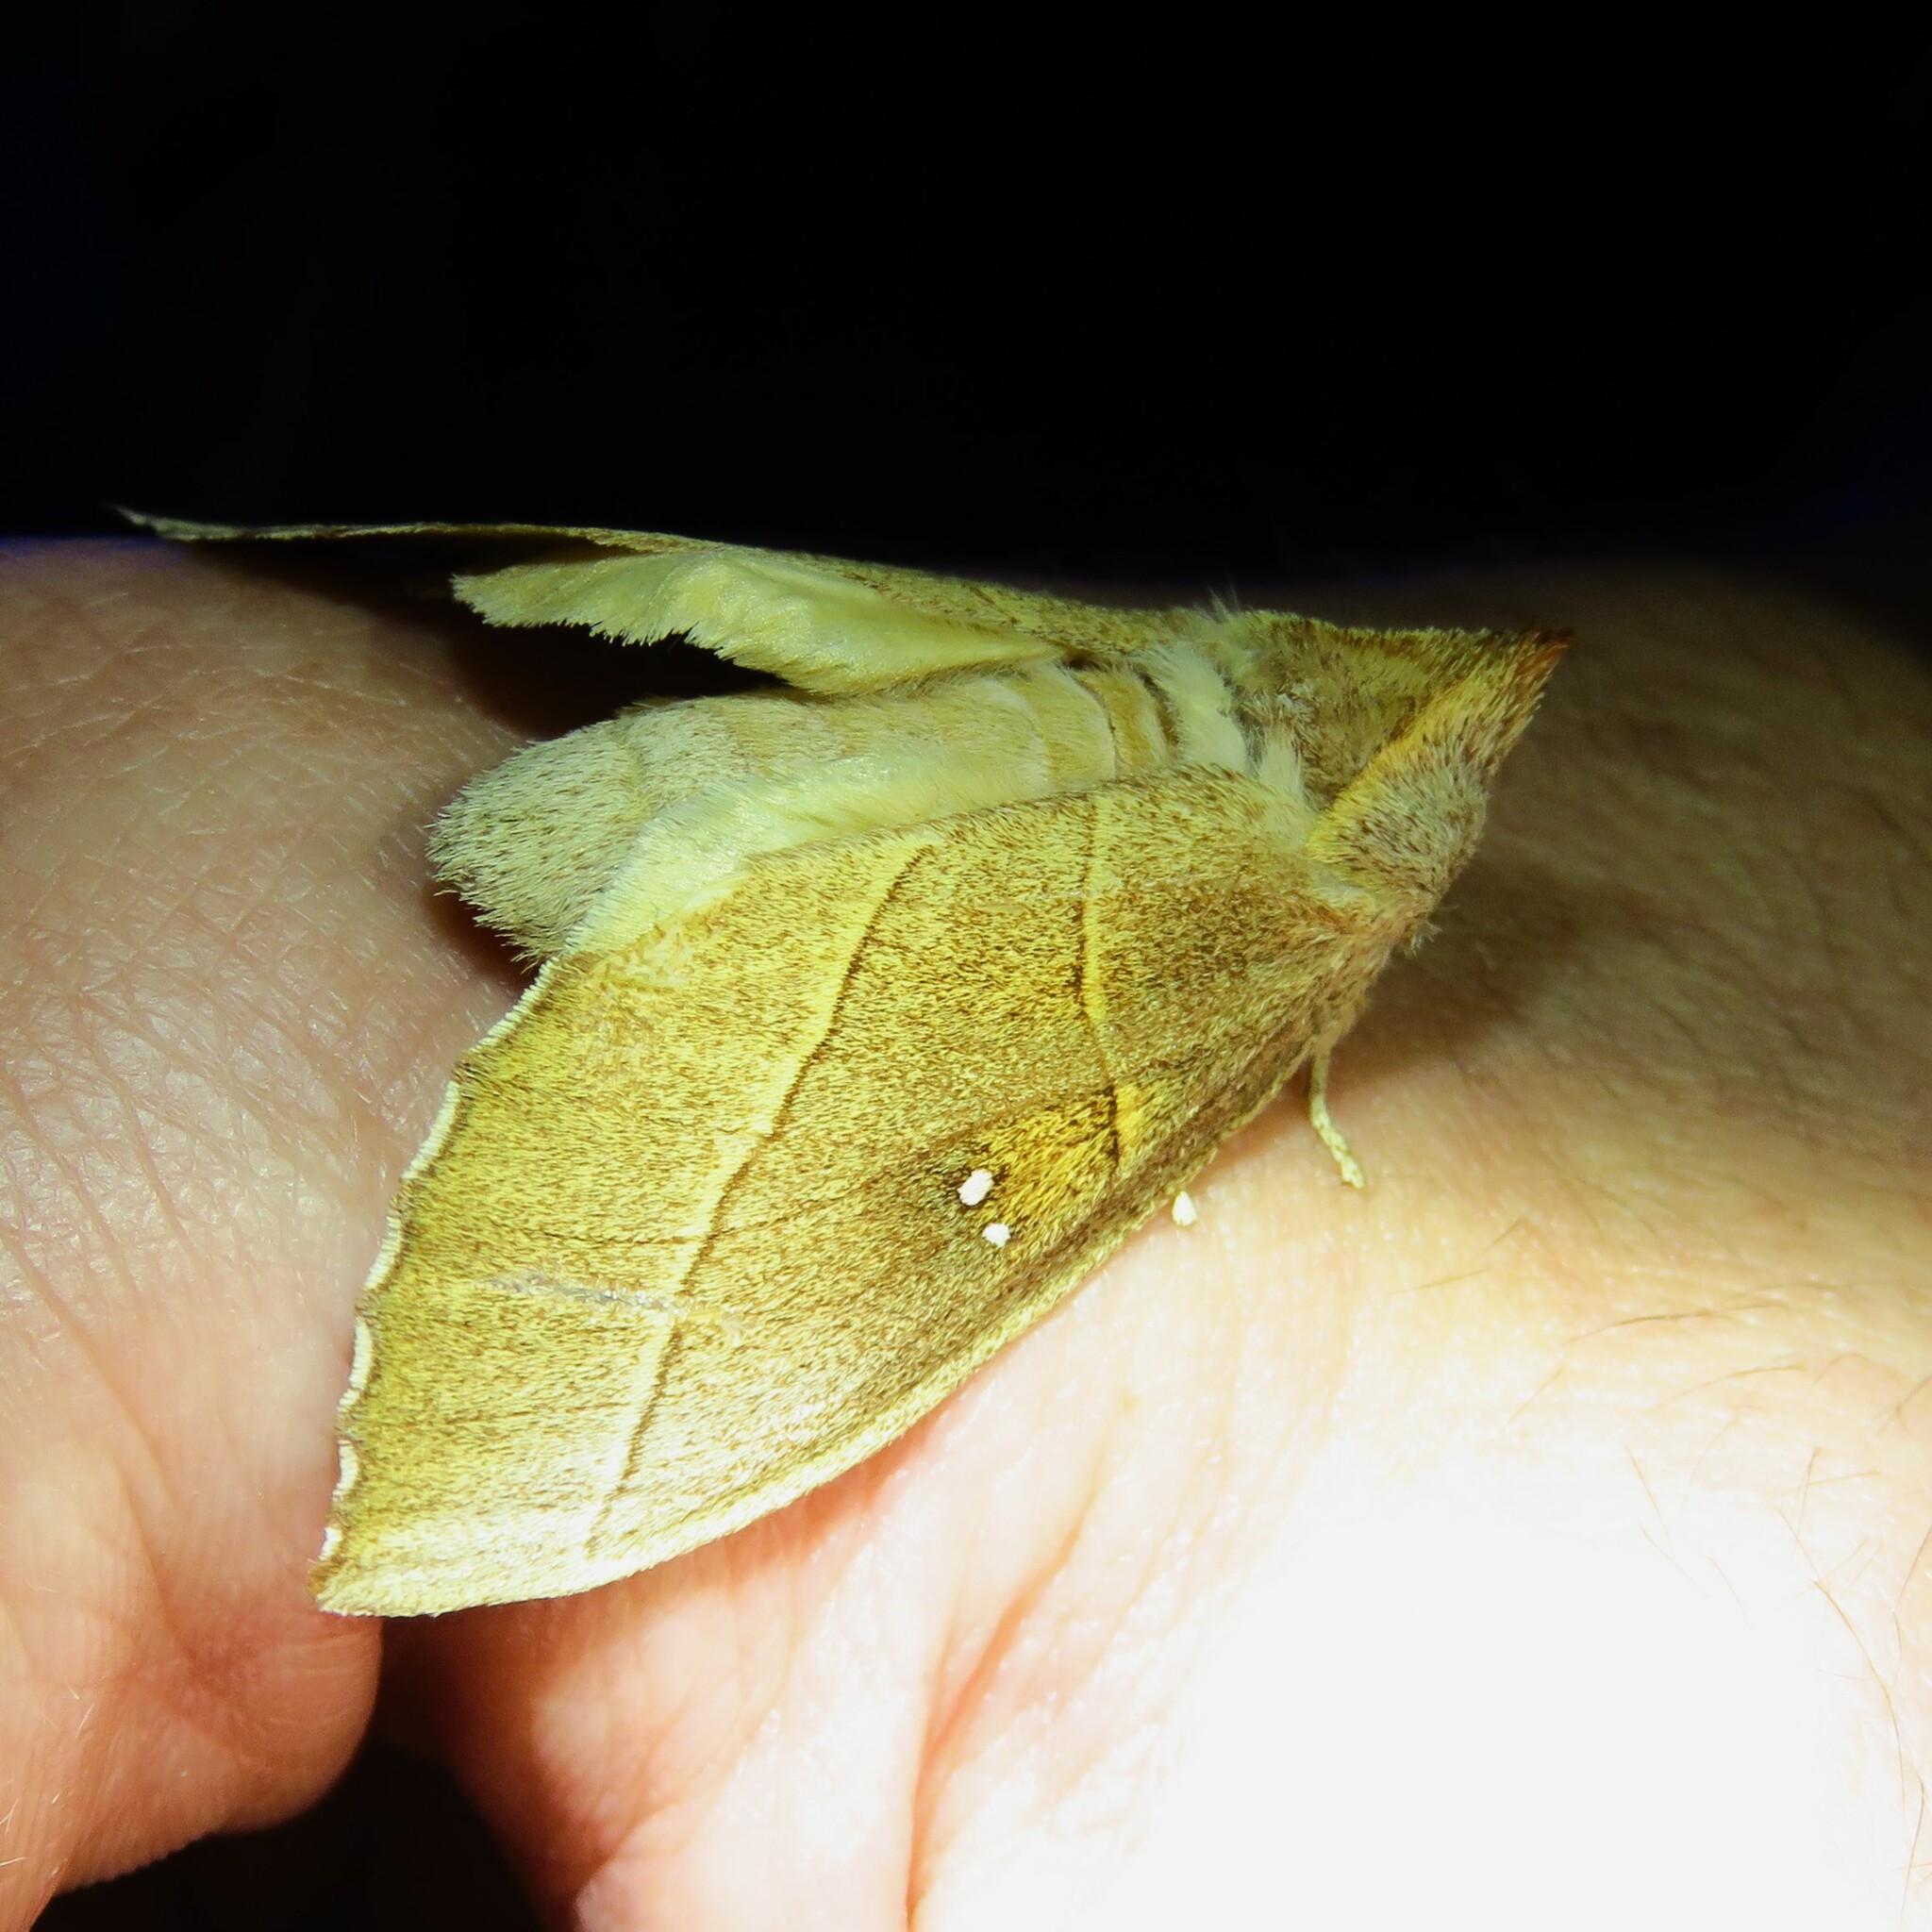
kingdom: Animalia
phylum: Arthropoda
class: Insecta
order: Lepidoptera
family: Notodontidae
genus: Nadata
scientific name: Nadata gibbosa
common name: White-dotted prominent
